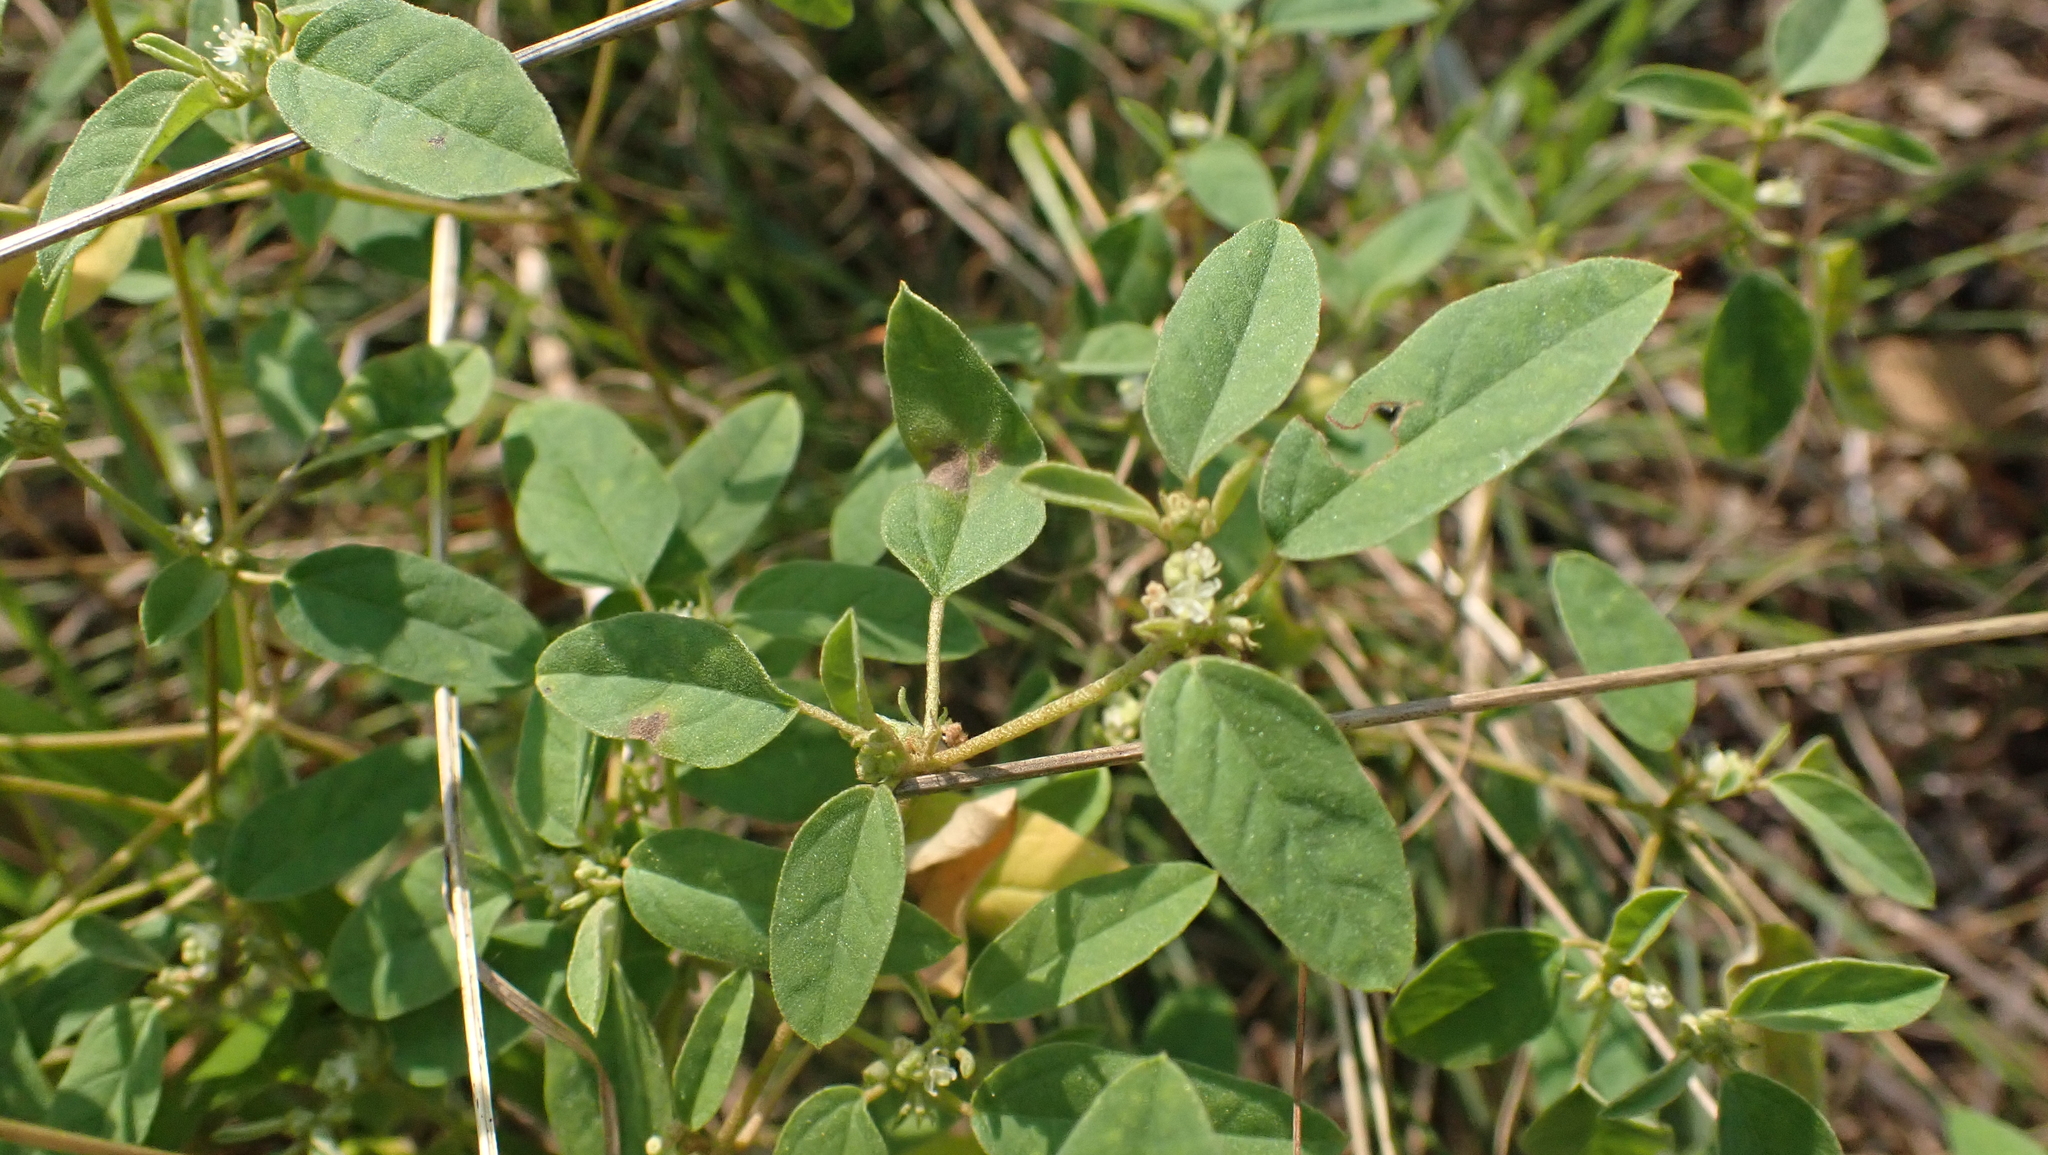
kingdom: Plantae
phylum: Tracheophyta
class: Magnoliopsida
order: Malpighiales
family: Euphorbiaceae
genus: Croton
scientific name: Croton monanthogynus
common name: One-seed croton
